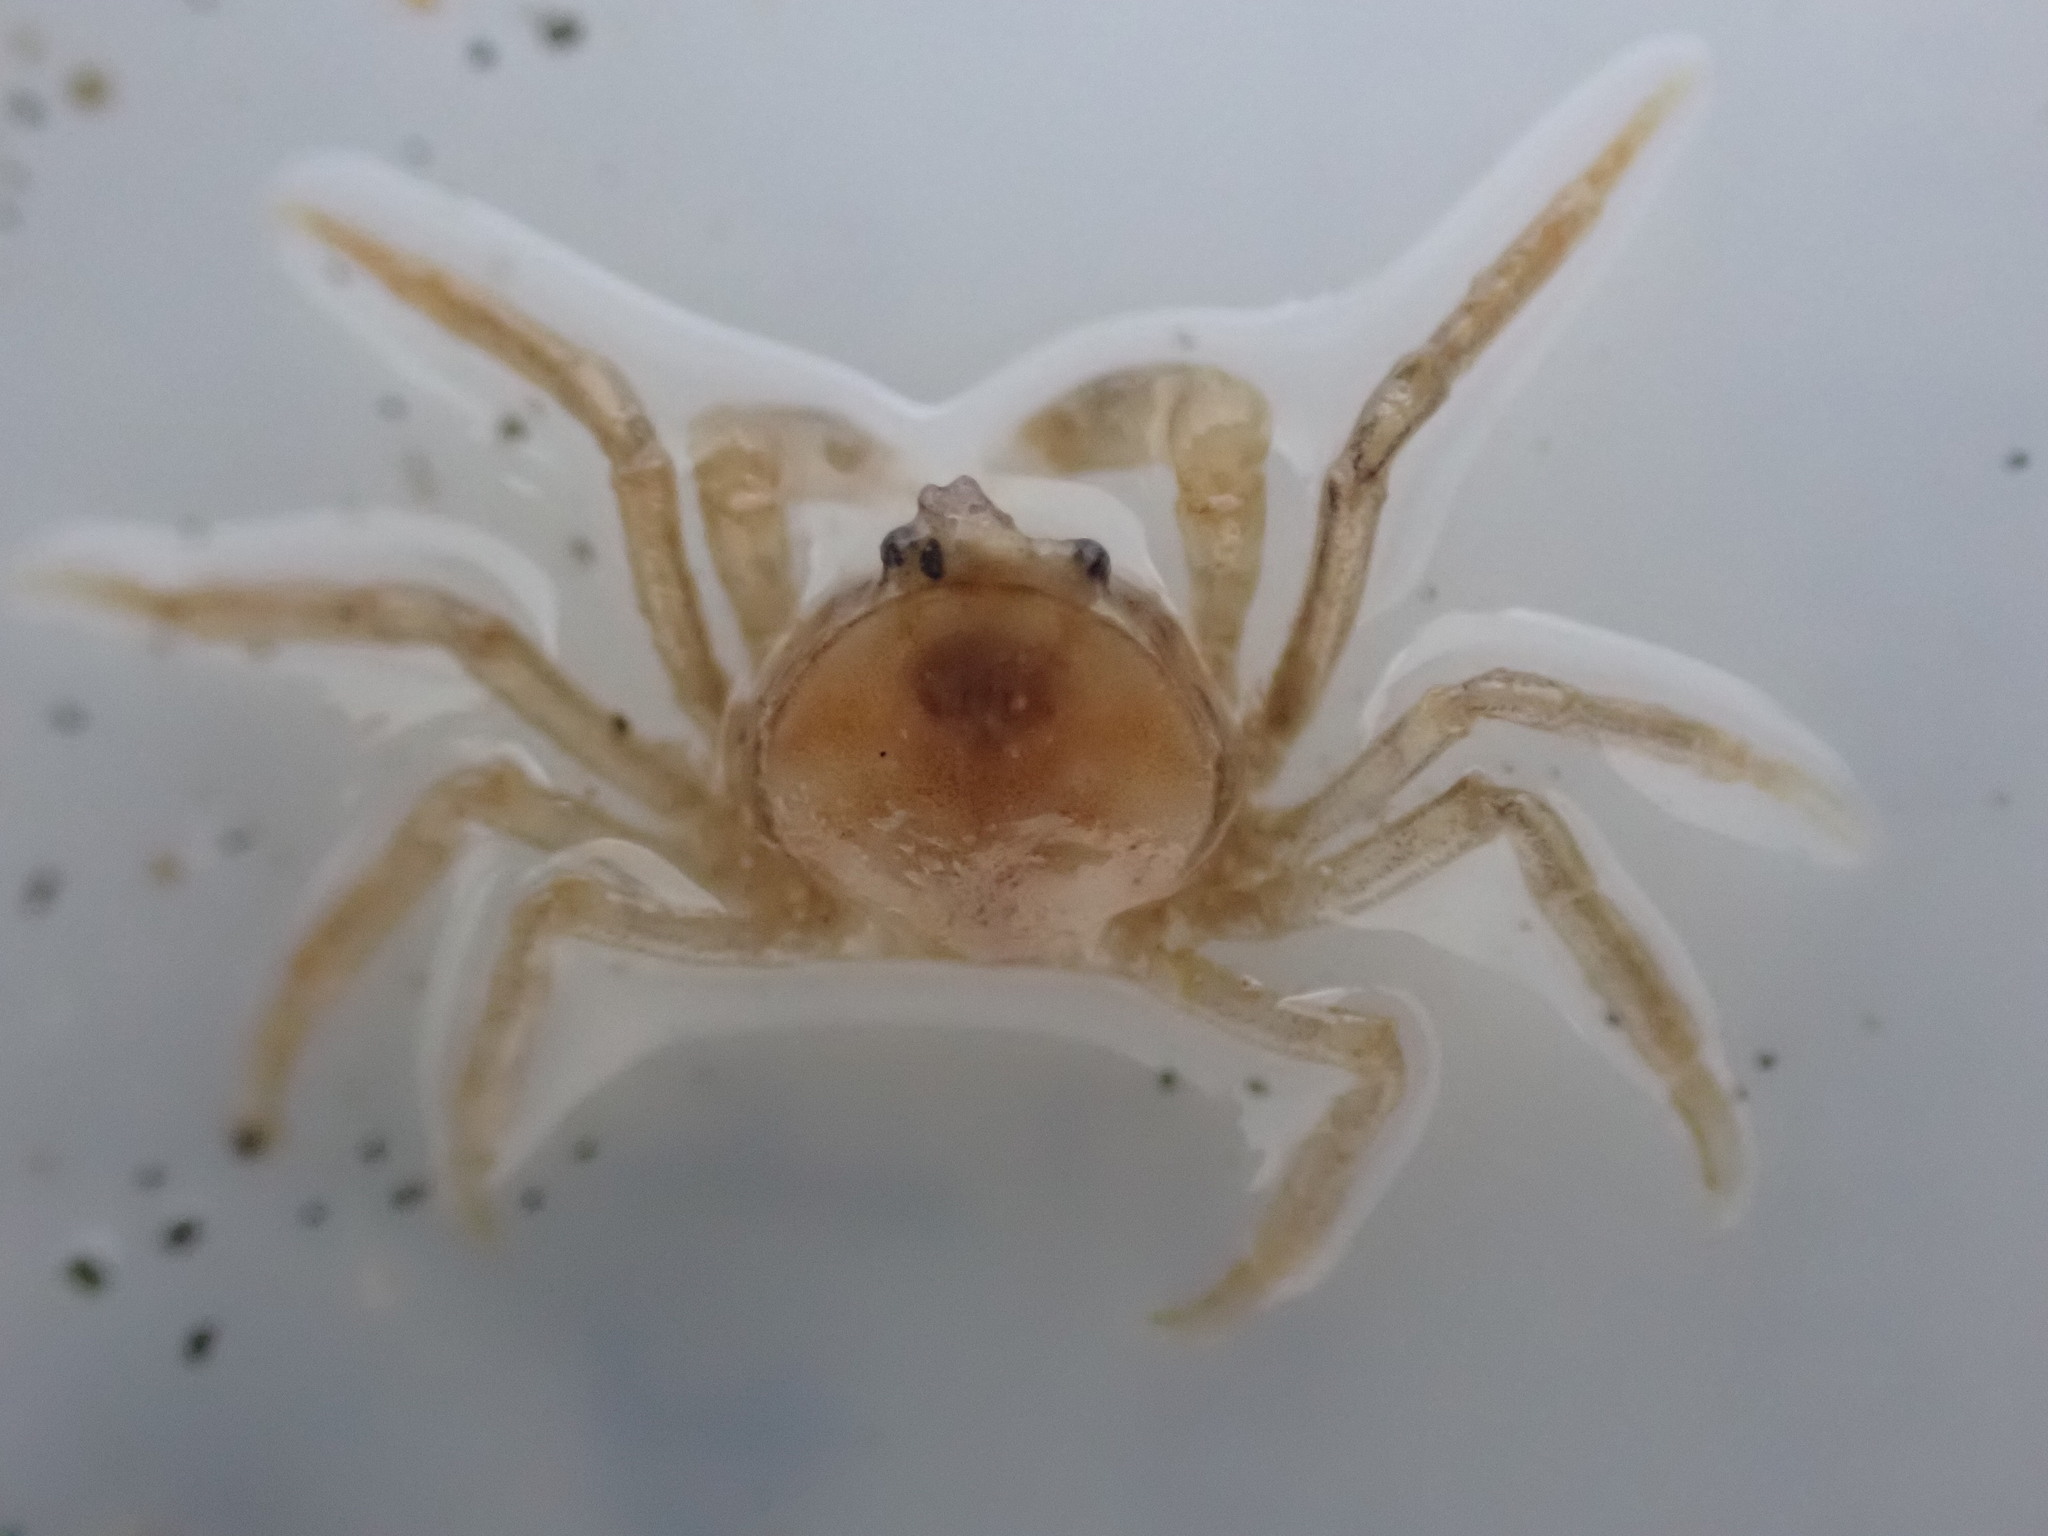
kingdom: Animalia
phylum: Arthropoda
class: Malacostraca
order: Decapoda
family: Hymenosomatidae
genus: Halicarcinus
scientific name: Halicarcinus quoyi
